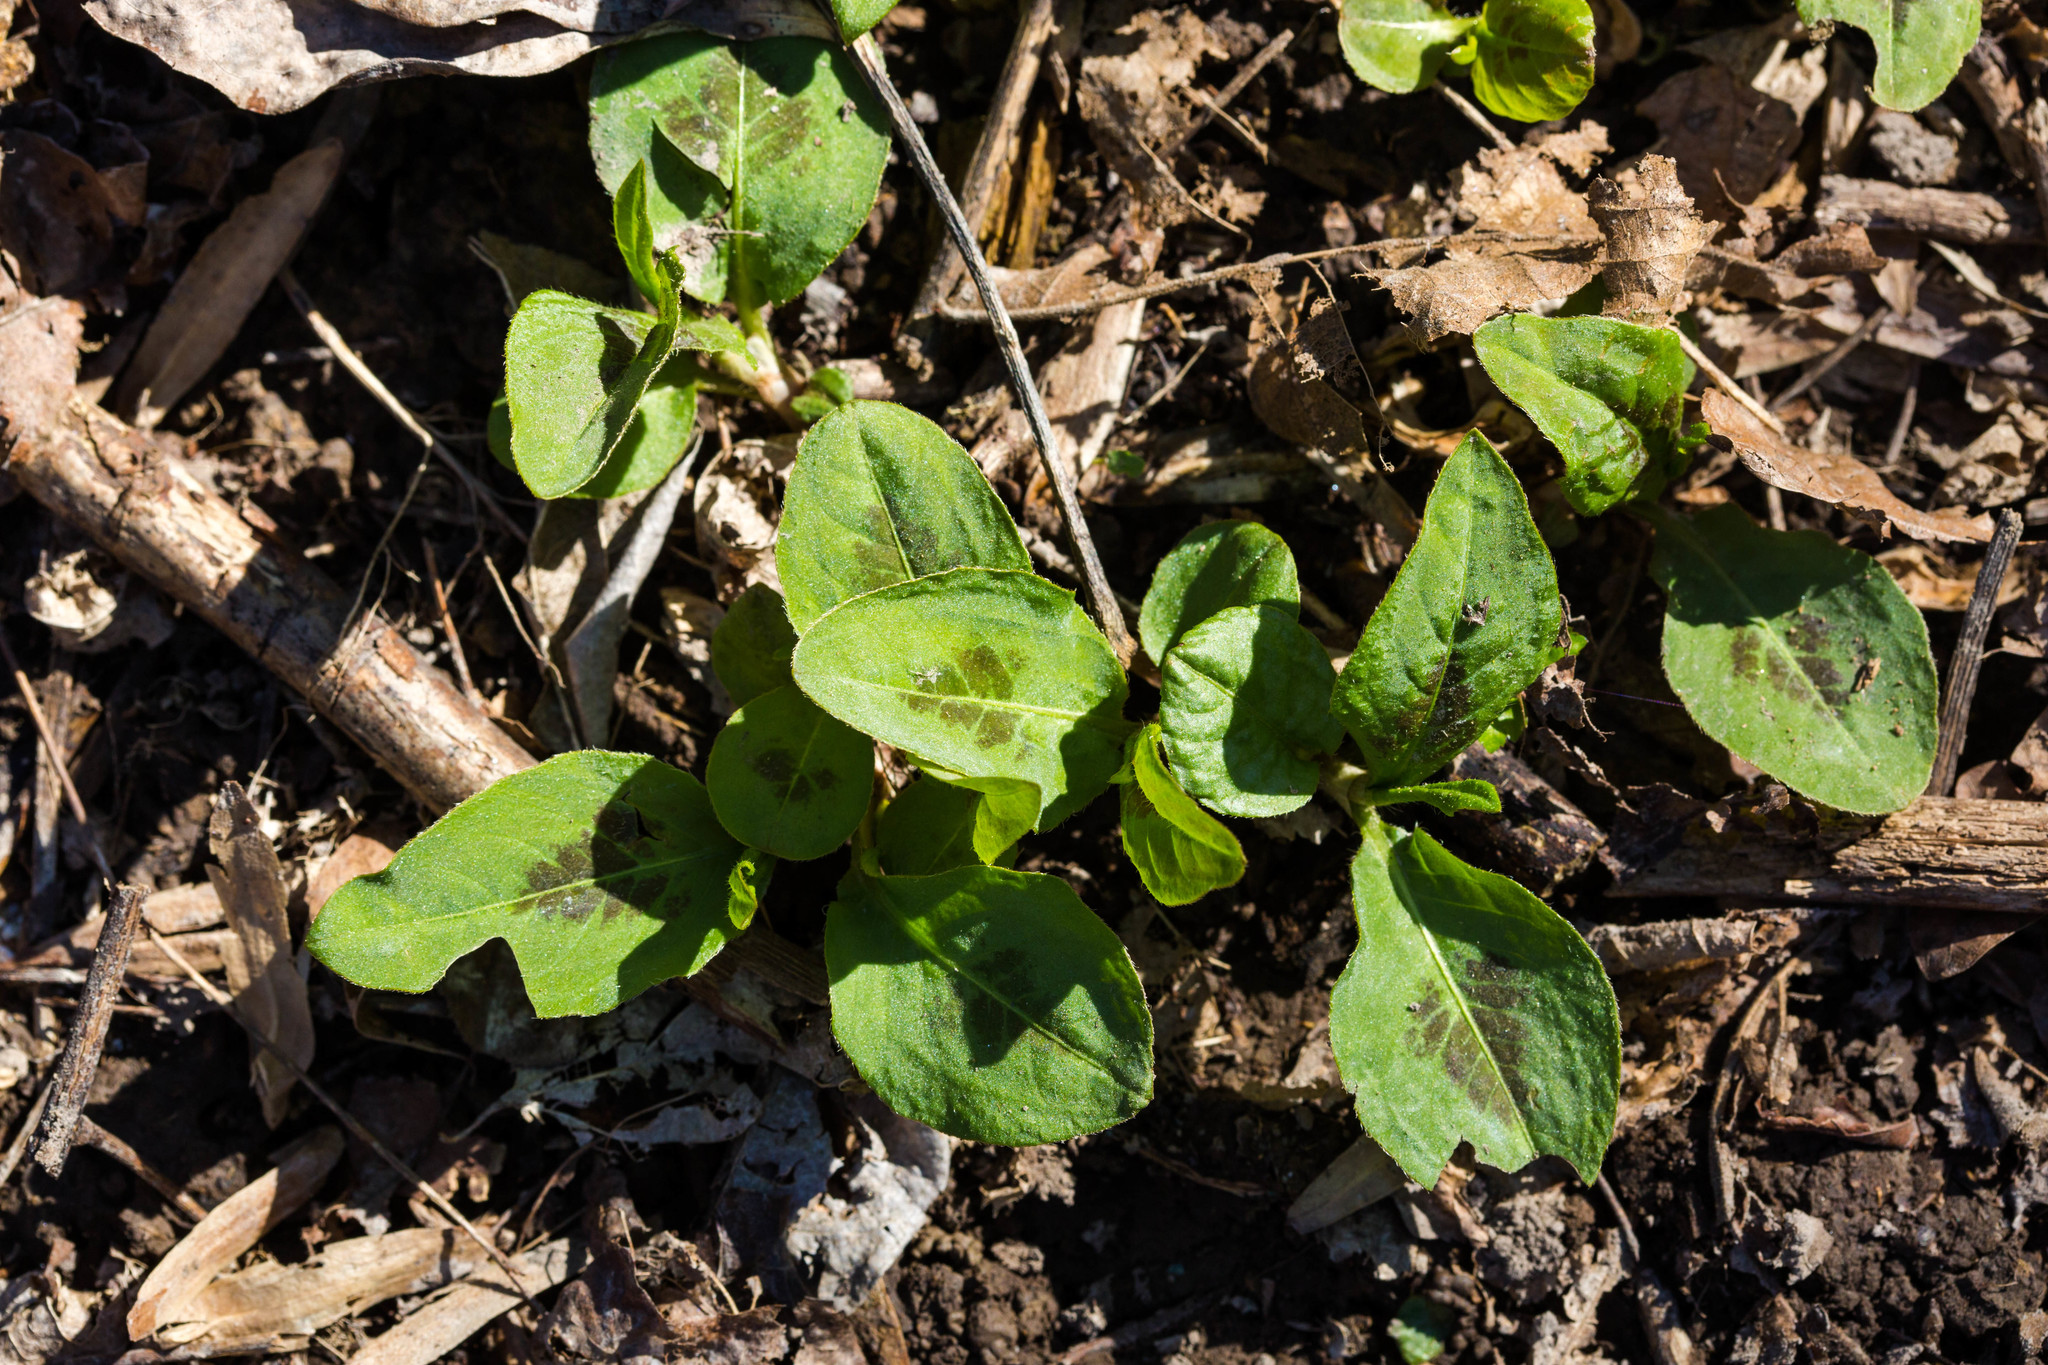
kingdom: Plantae
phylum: Tracheophyta
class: Magnoliopsida
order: Caryophyllales
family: Polygonaceae
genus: Persicaria
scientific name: Persicaria virginiana
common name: Jumpseed
